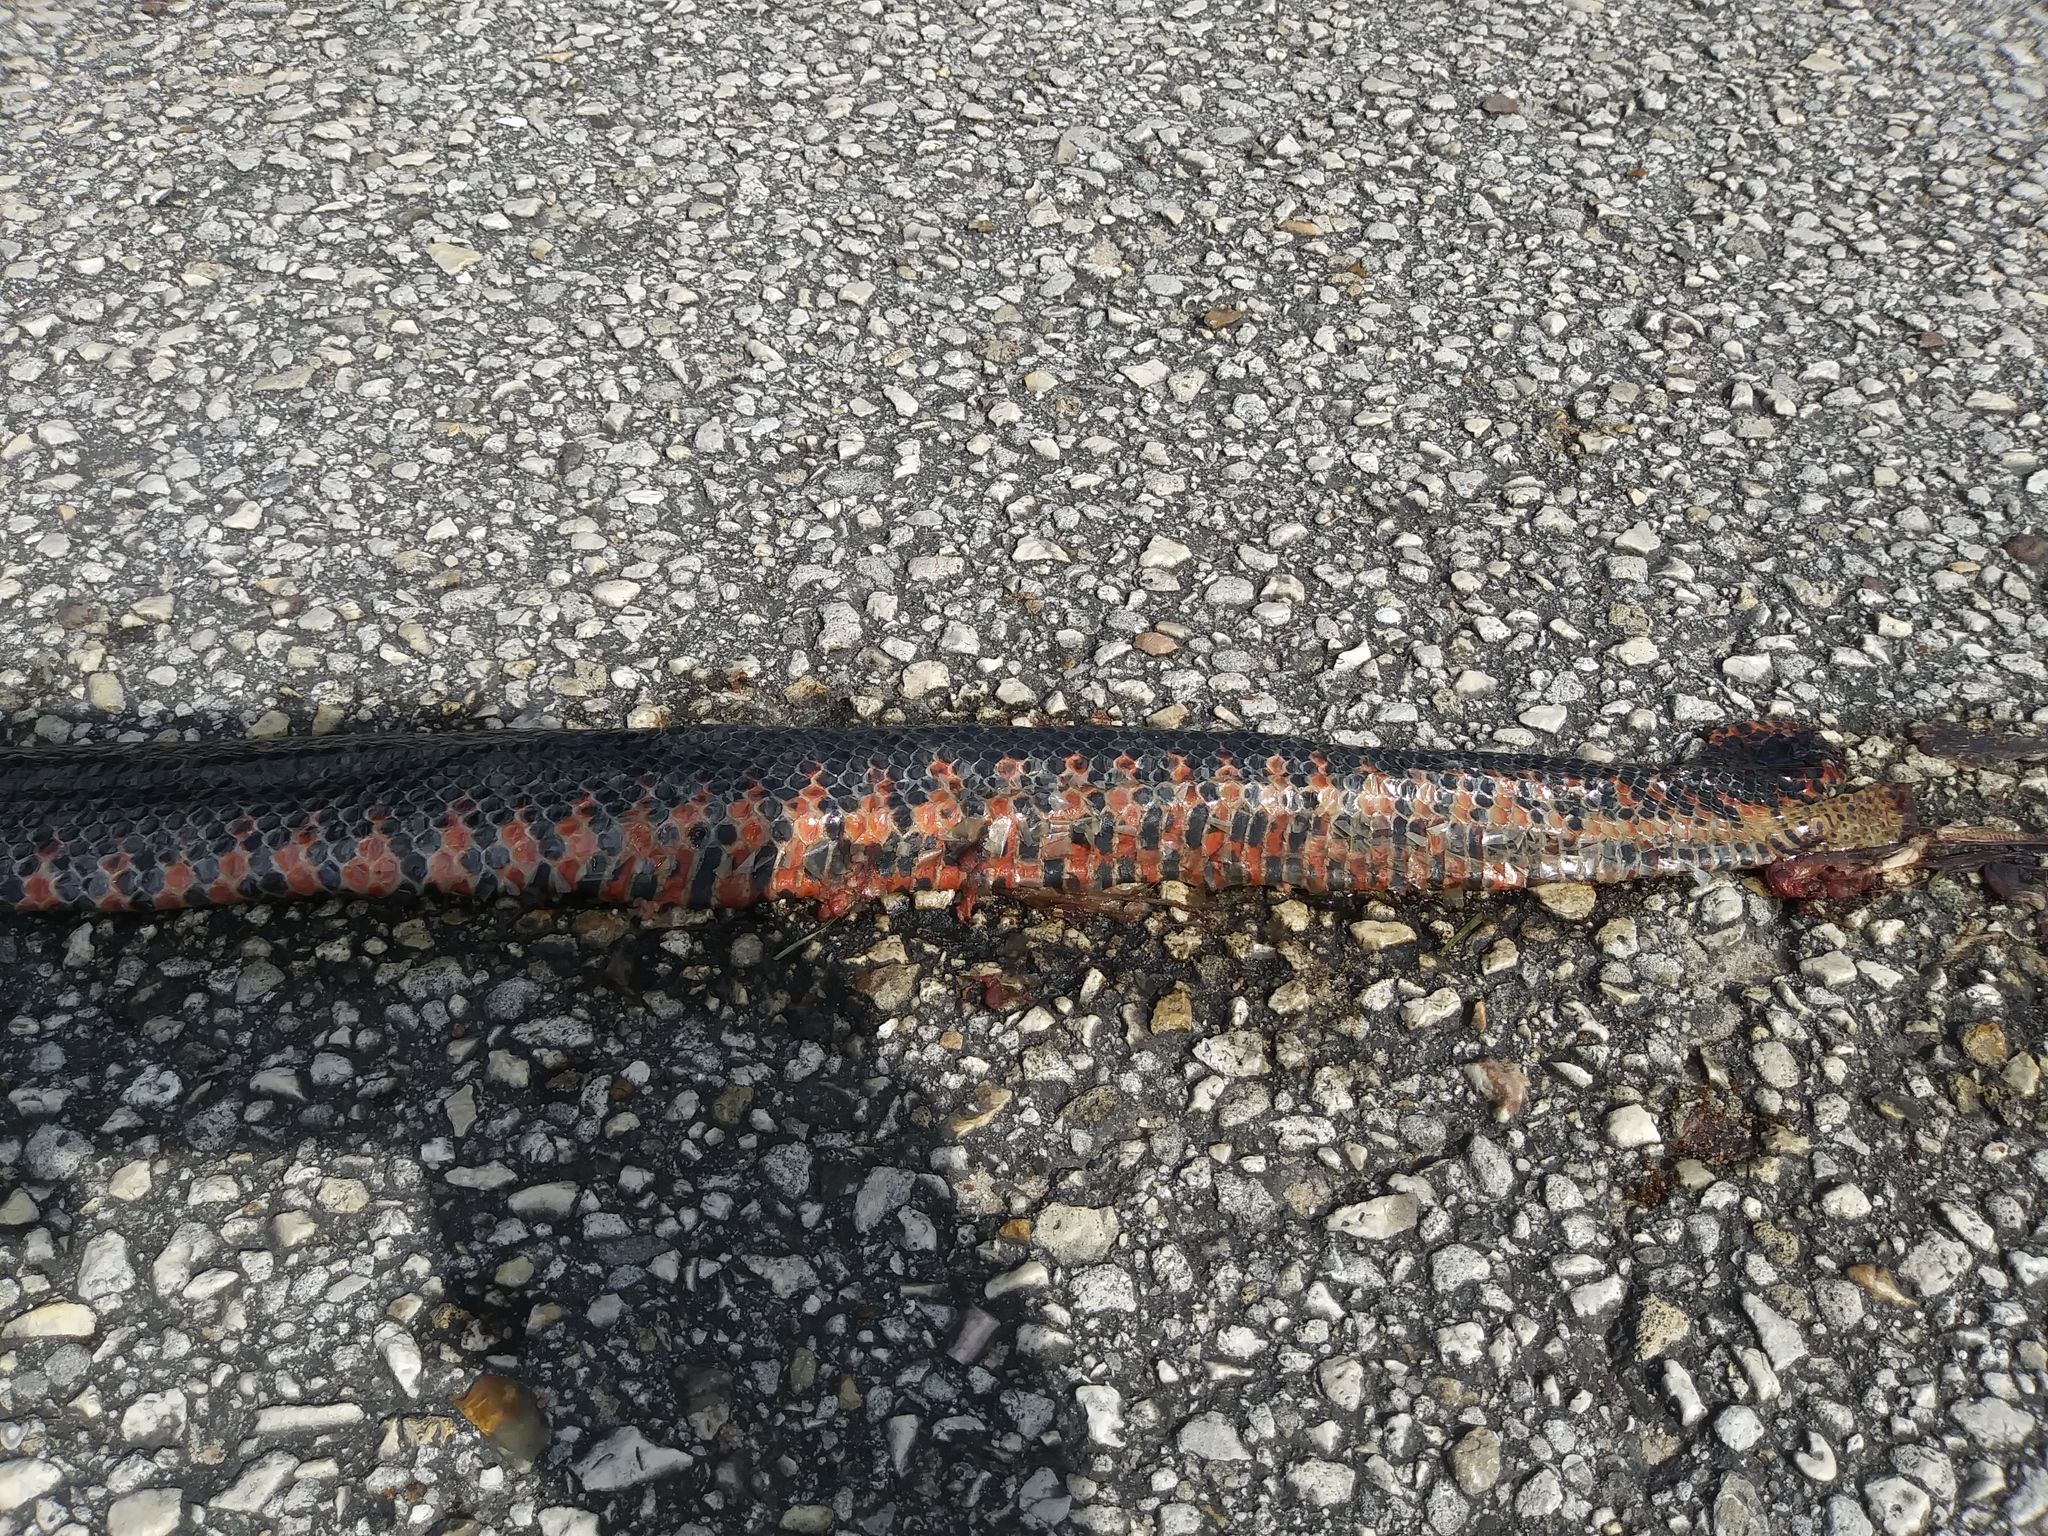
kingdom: Animalia
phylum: Chordata
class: Squamata
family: Colubridae
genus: Farancia
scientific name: Farancia abacura
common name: Mud snake
